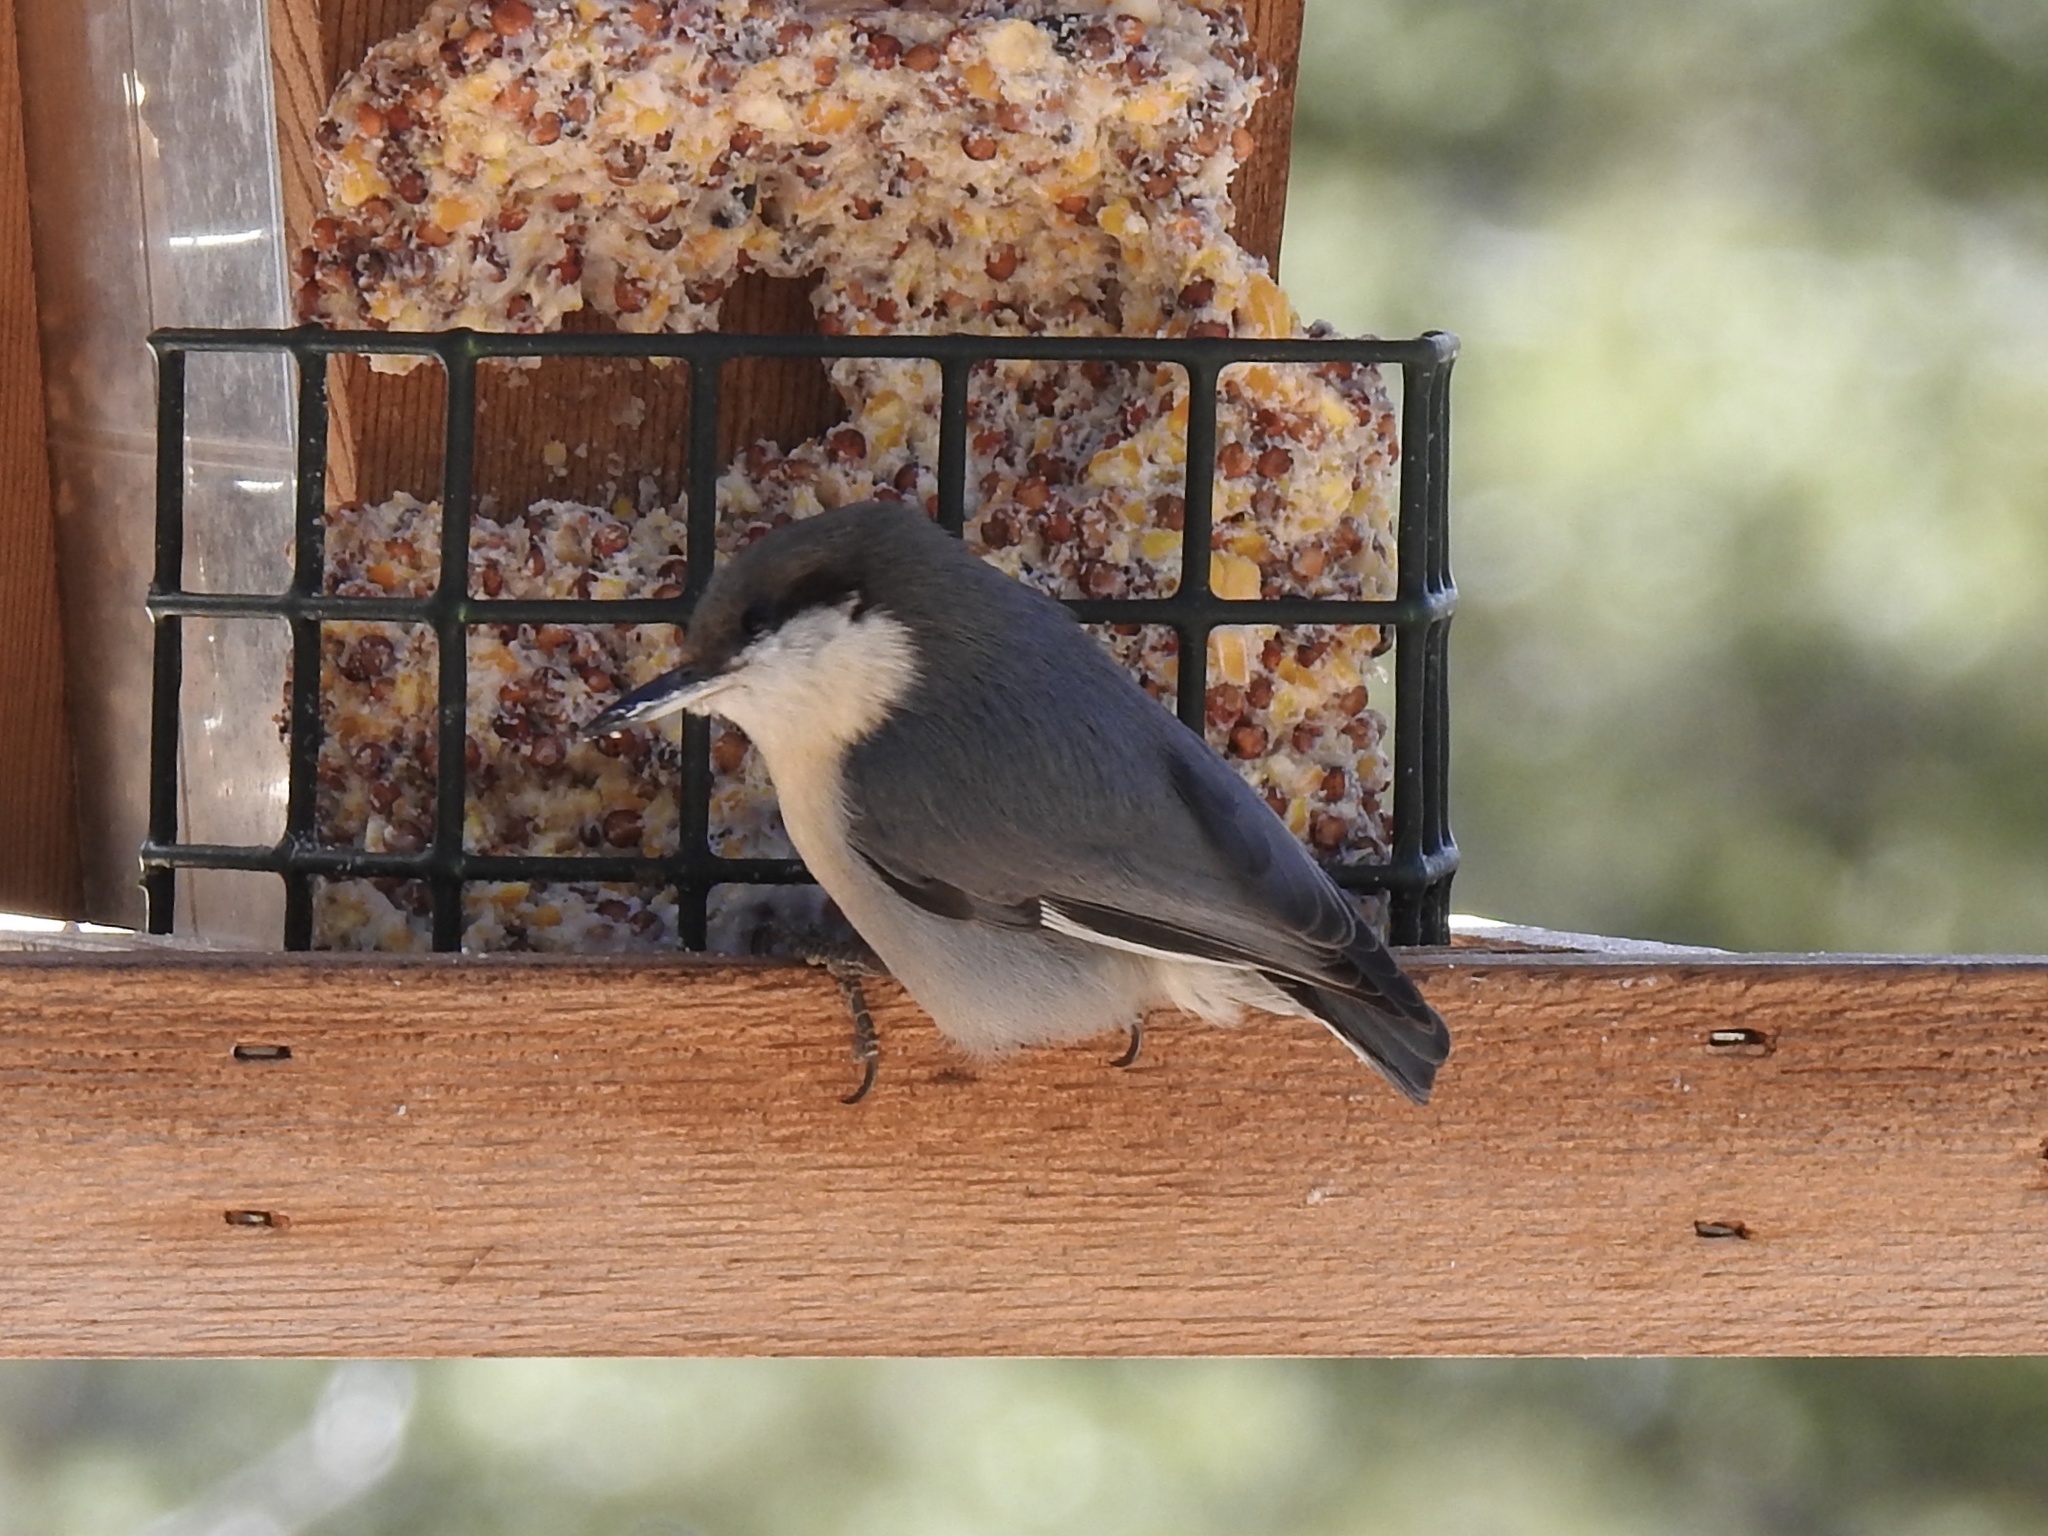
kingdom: Animalia
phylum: Chordata
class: Aves
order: Passeriformes
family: Sittidae
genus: Sitta
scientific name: Sitta pygmaea
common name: Pygmy nuthatch
